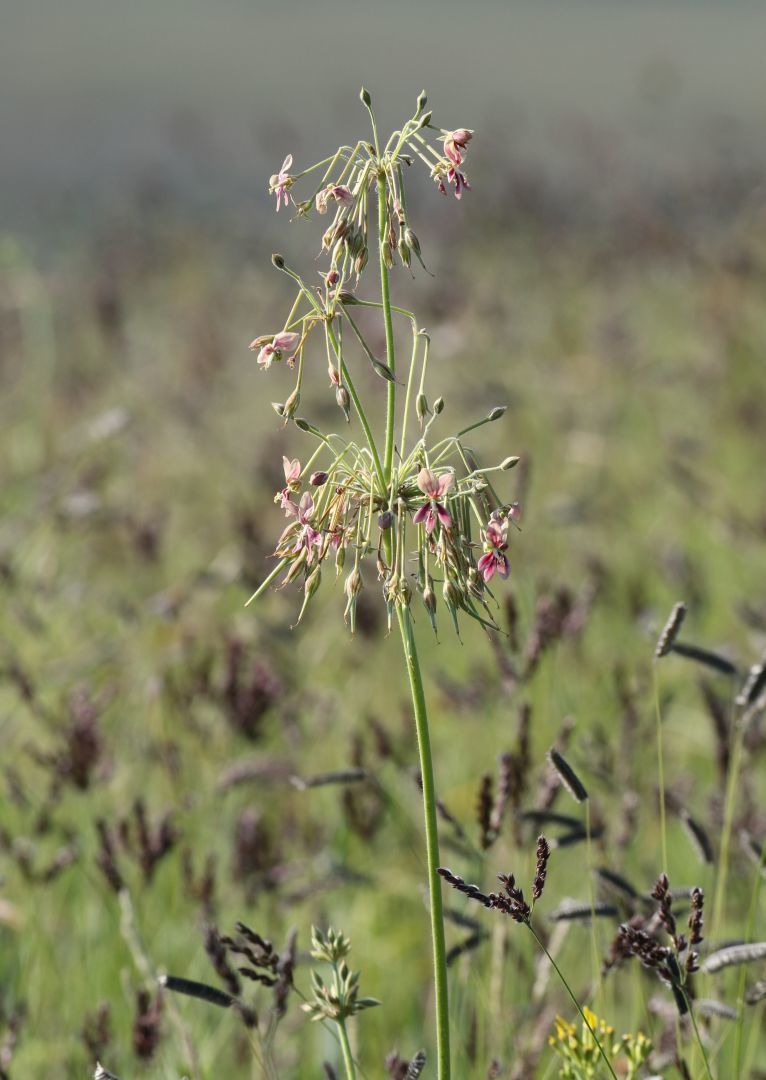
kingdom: Plantae
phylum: Tracheophyta
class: Magnoliopsida
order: Geraniales
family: Geraniaceae
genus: Pelargonium
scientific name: Pelargonium luridum
